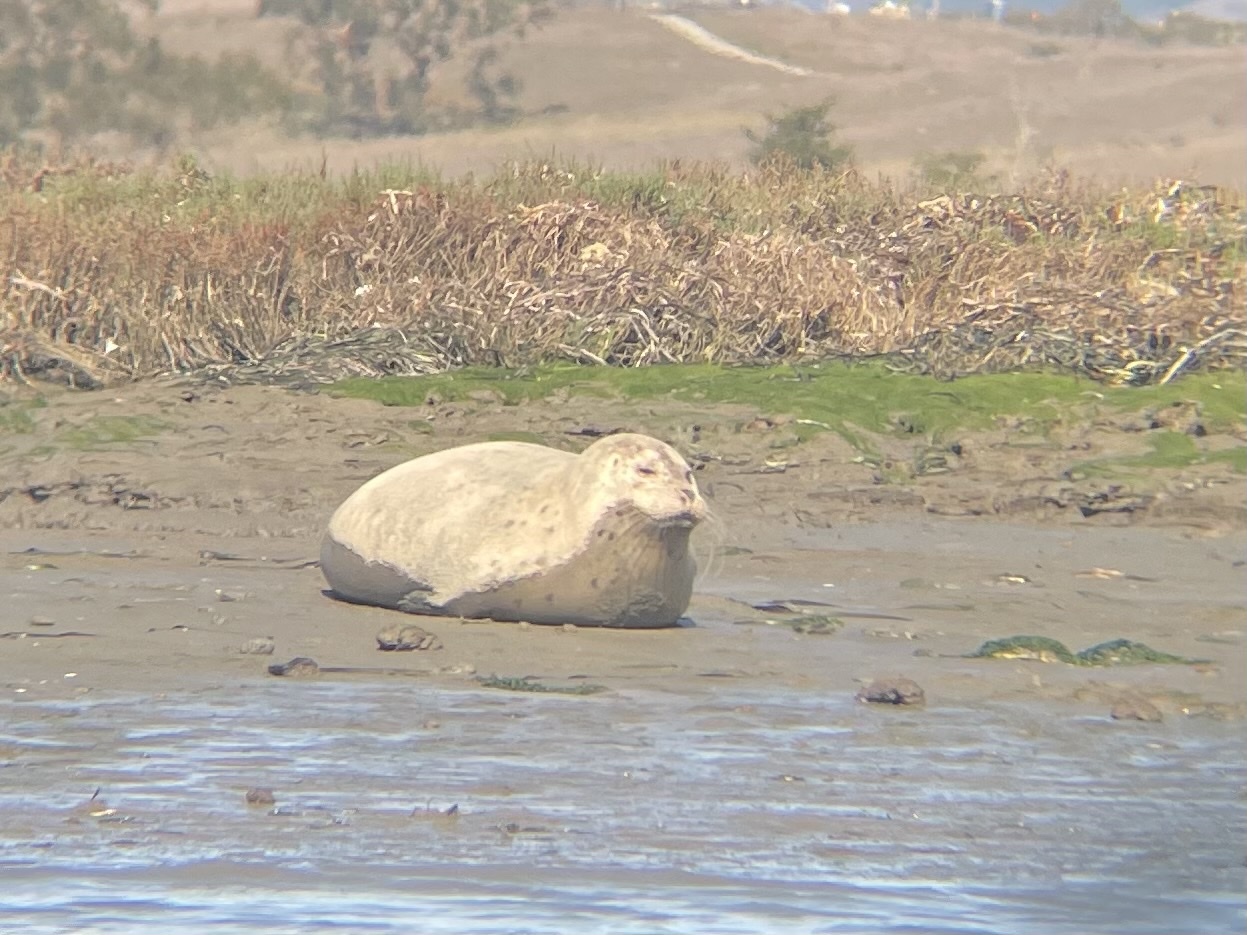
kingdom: Animalia
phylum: Chordata
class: Mammalia
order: Carnivora
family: Phocidae
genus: Phoca
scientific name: Phoca vitulina
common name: Harbor seal
